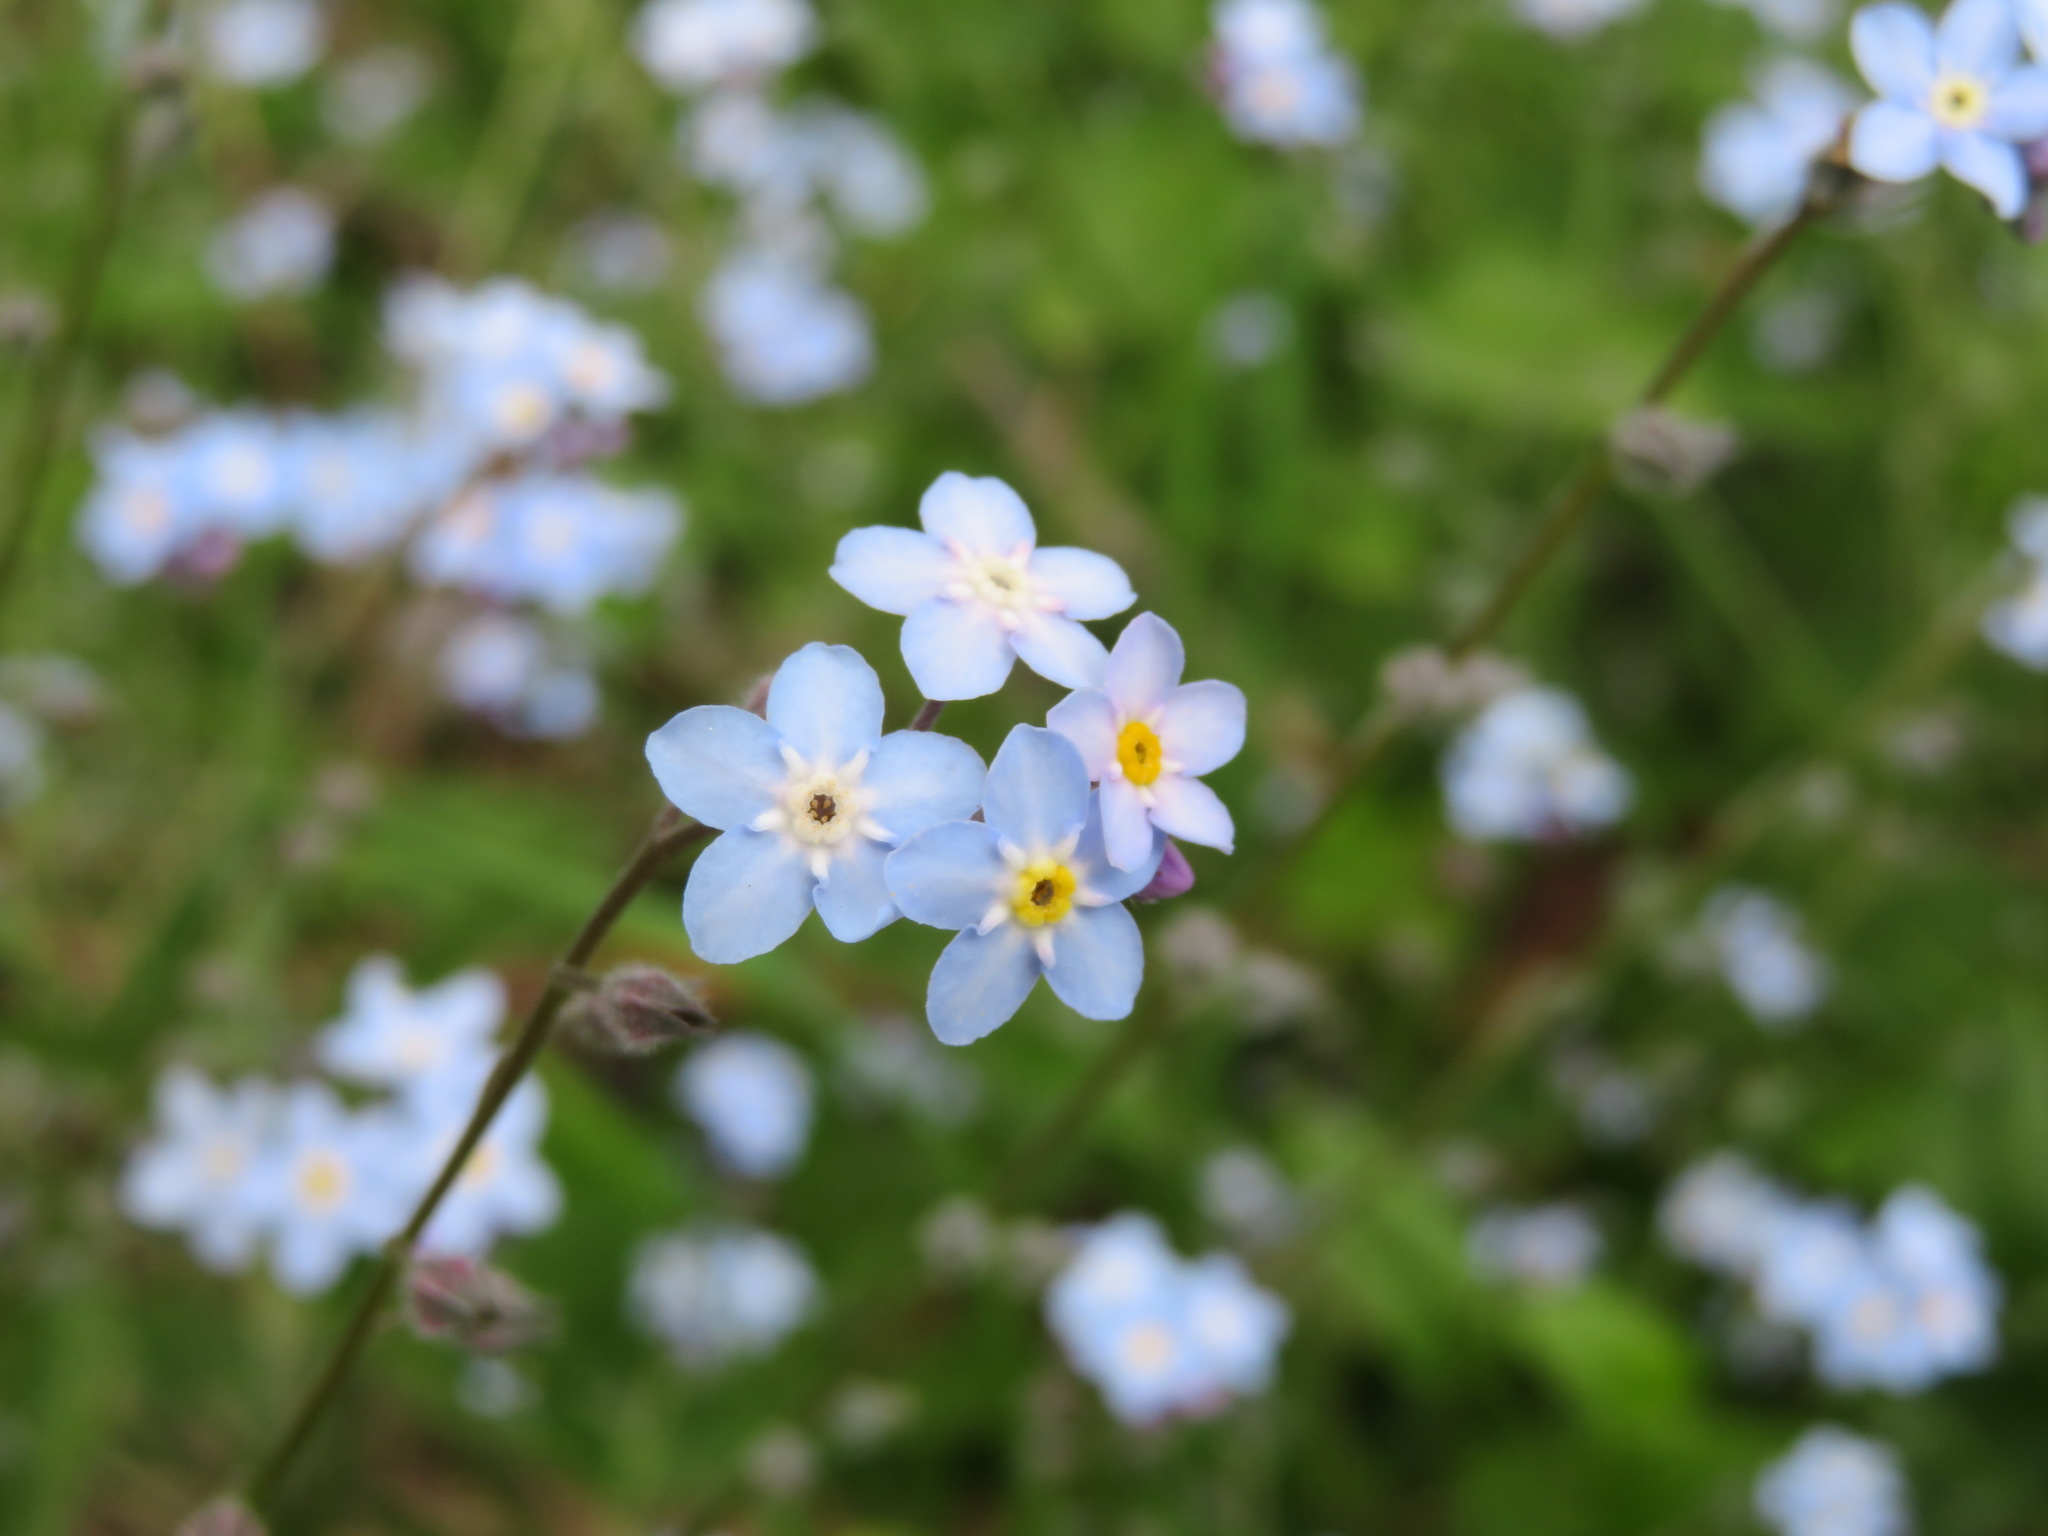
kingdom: Plantae
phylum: Tracheophyta
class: Magnoliopsida
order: Boraginales
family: Boraginaceae
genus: Myosotis
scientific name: Myosotis sylvatica
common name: Wood forget-me-not
